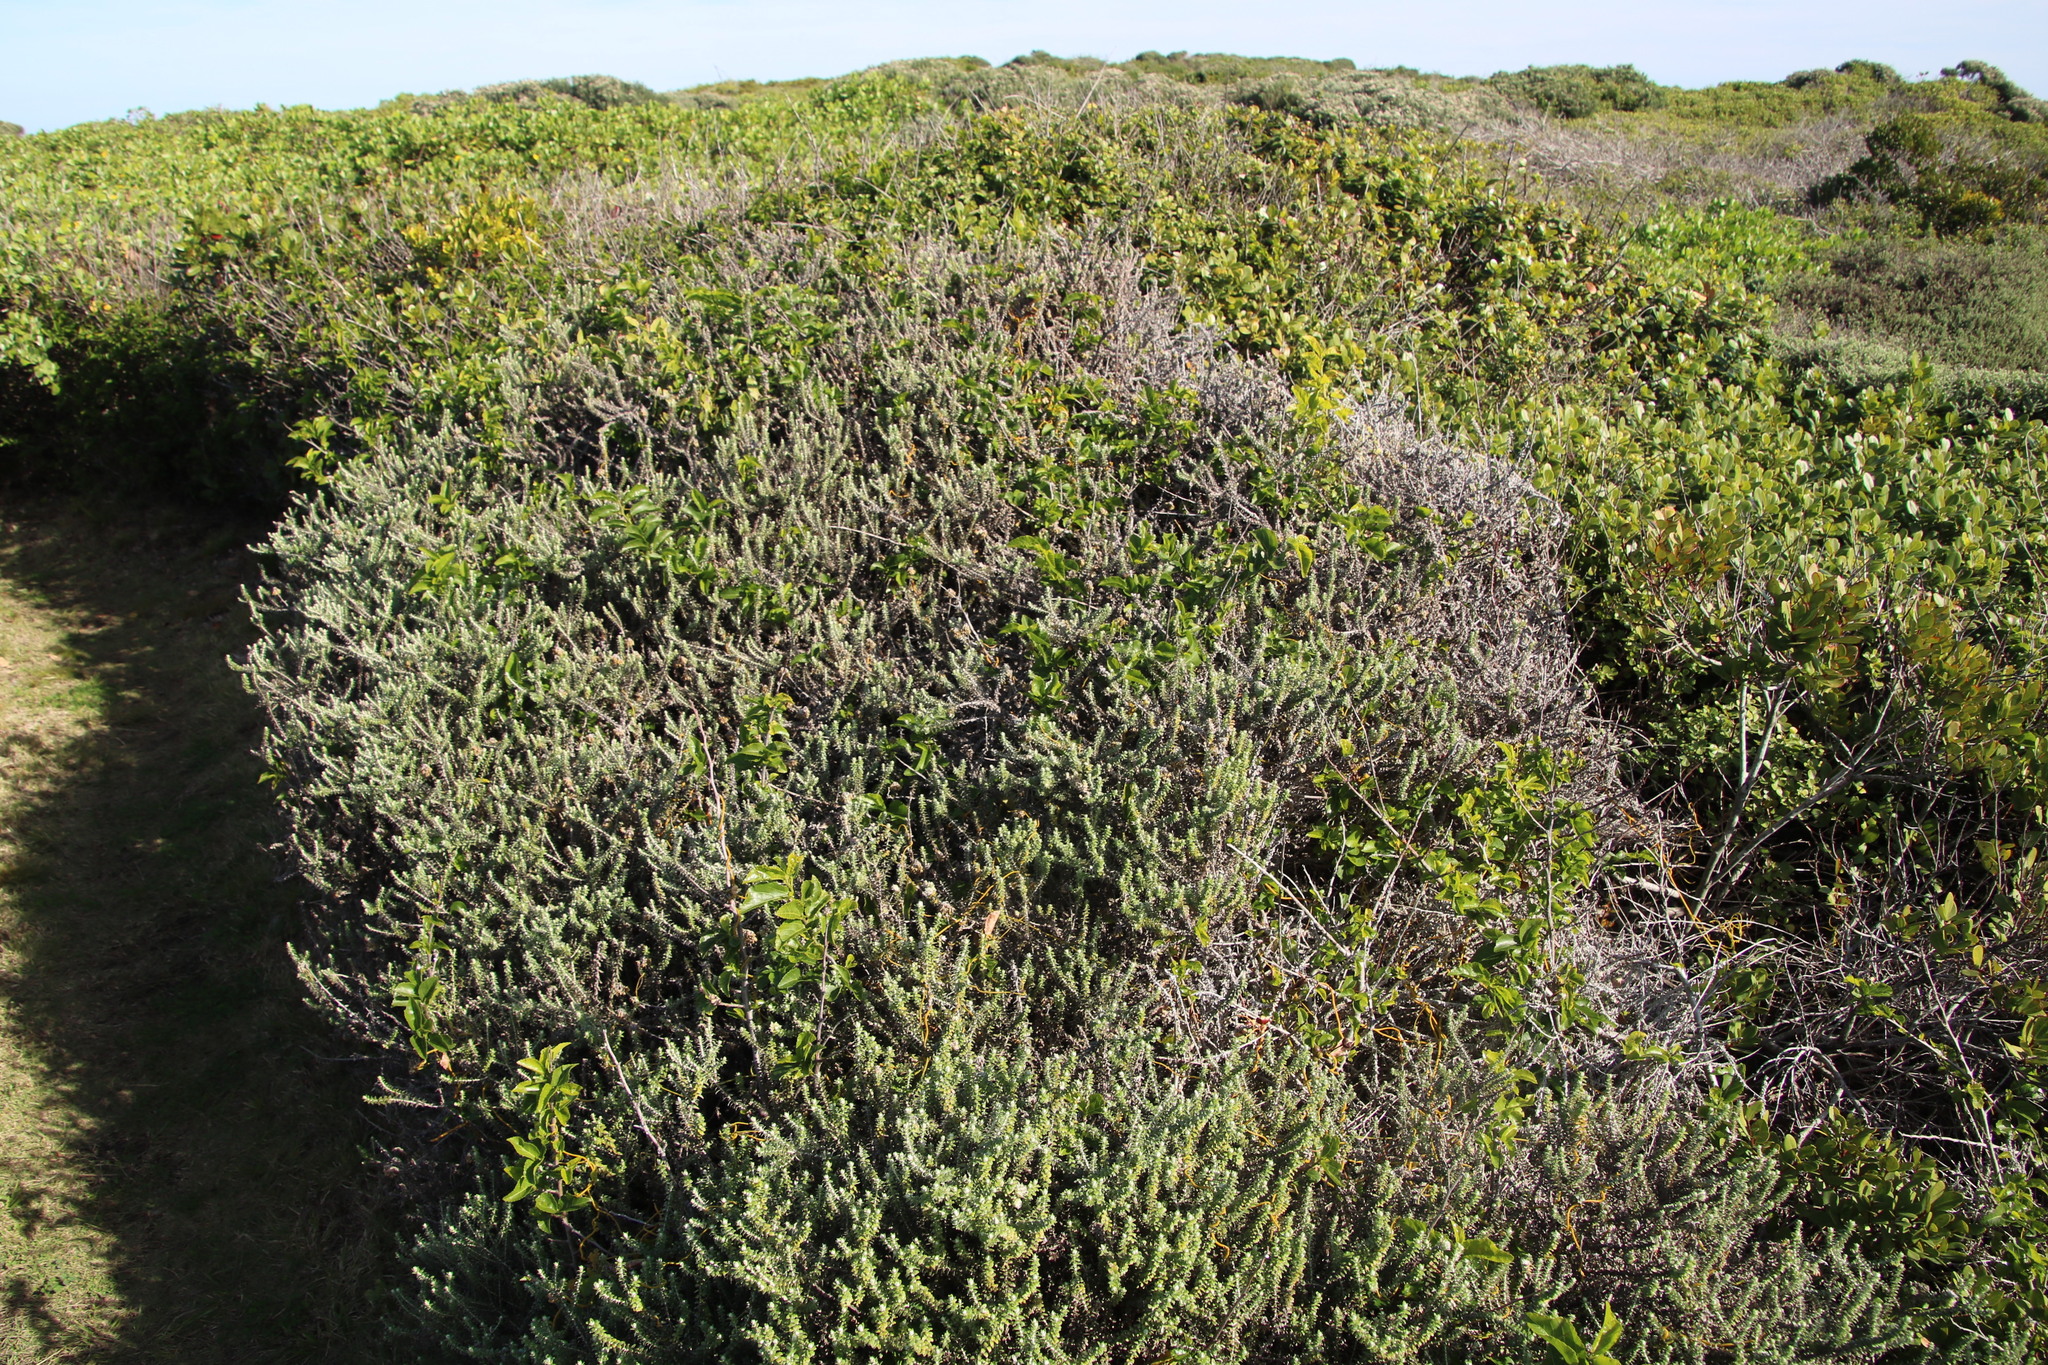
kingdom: Plantae
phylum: Tracheophyta
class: Magnoliopsida
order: Malvales
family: Malvaceae
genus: Grewia
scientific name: Grewia occidentalis
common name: Crossberry
